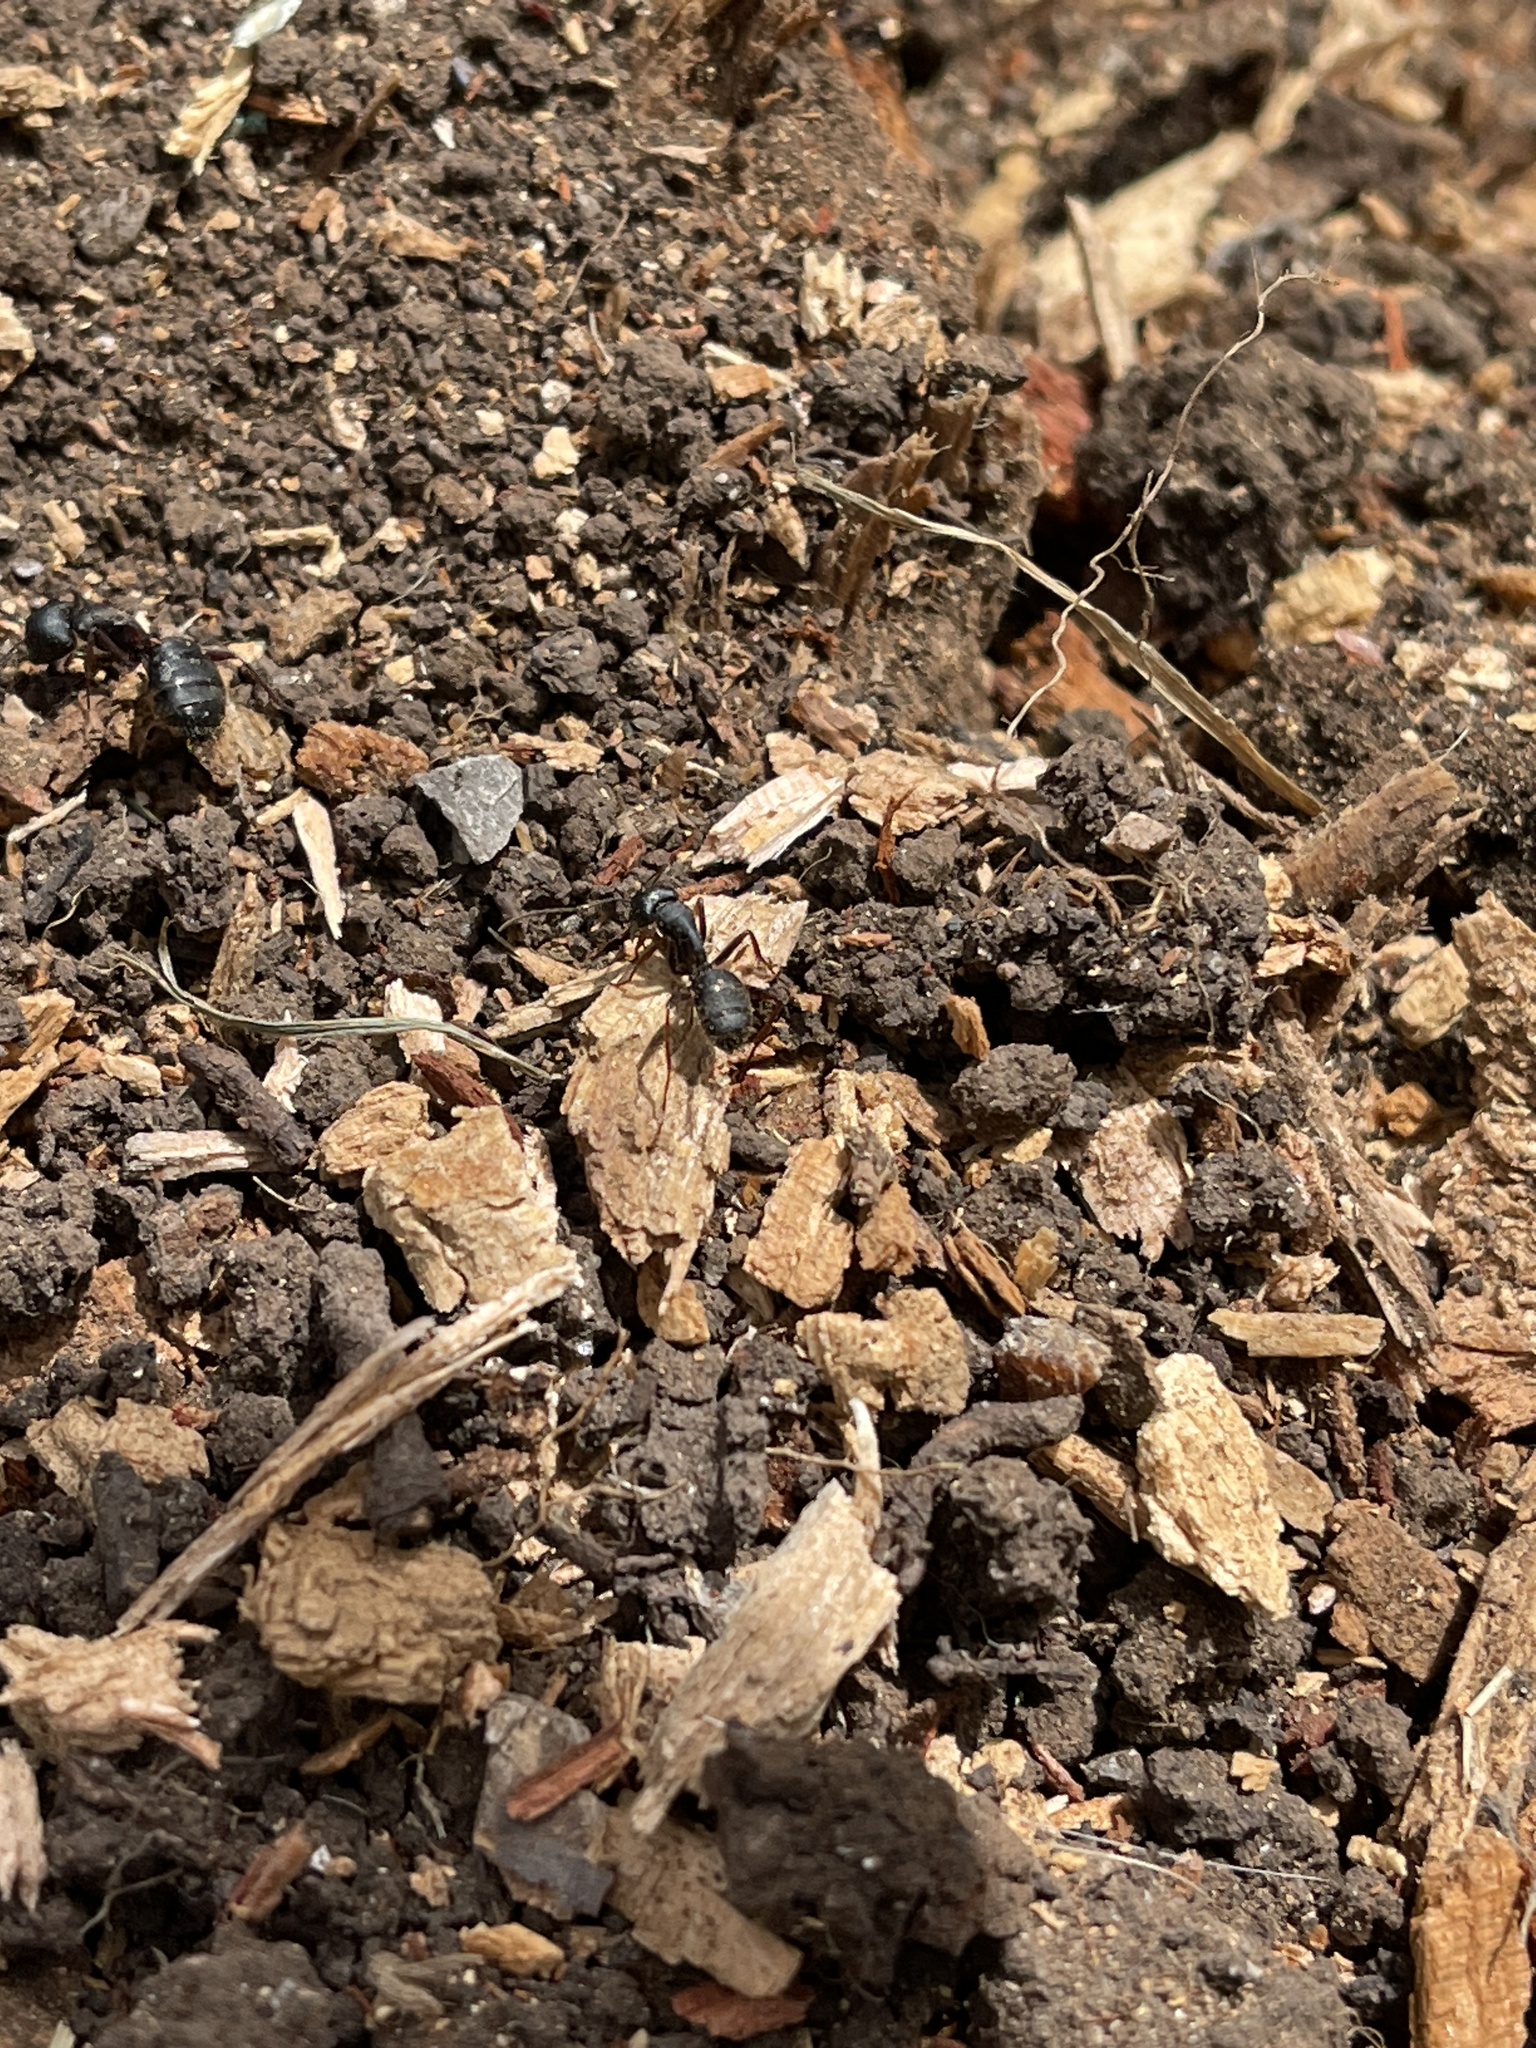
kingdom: Animalia
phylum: Arthropoda
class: Insecta
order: Hymenoptera
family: Formicidae
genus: Camponotus
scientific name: Camponotus modoc
